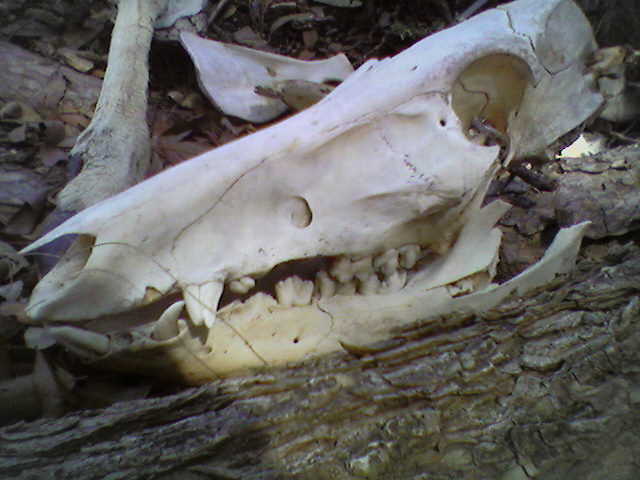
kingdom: Animalia
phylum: Chordata
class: Mammalia
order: Artiodactyla
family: Suidae
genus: Sus
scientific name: Sus scrofa
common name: Wild boar
